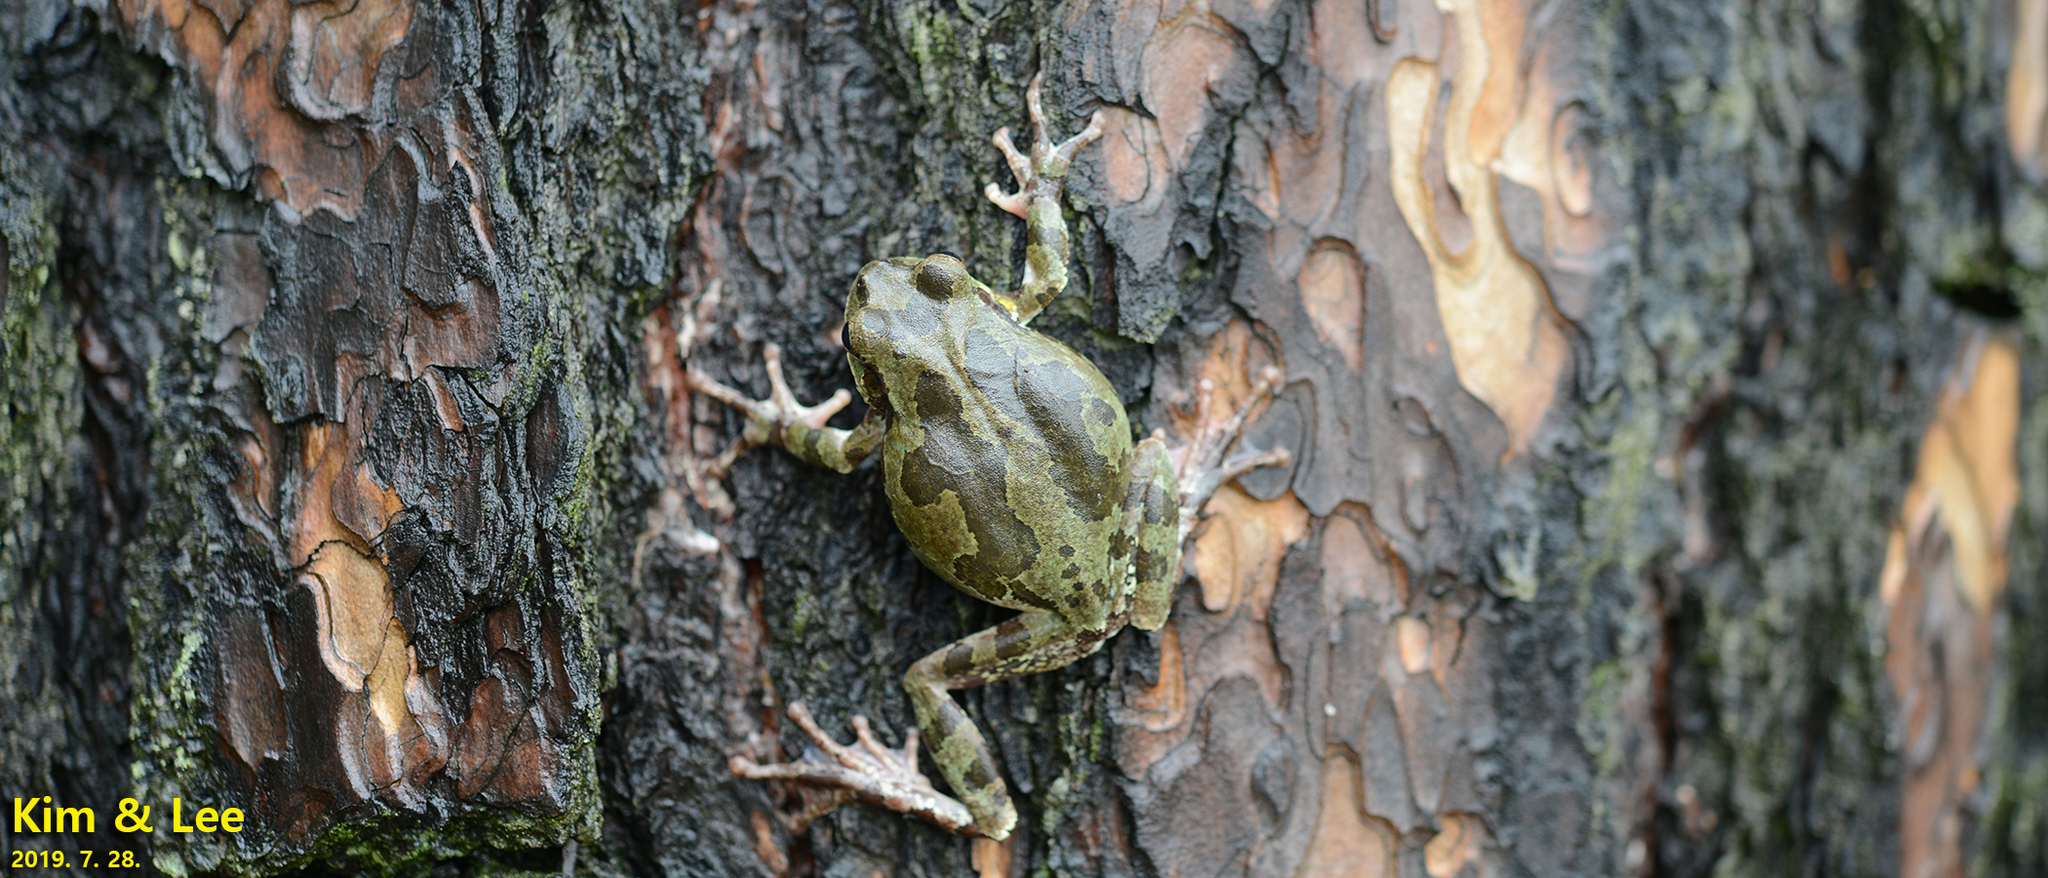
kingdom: Animalia
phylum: Chordata
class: Amphibia
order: Anura
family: Hylidae
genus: Dryophytes
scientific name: Dryophytes japonicus
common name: Japanese treefrog
